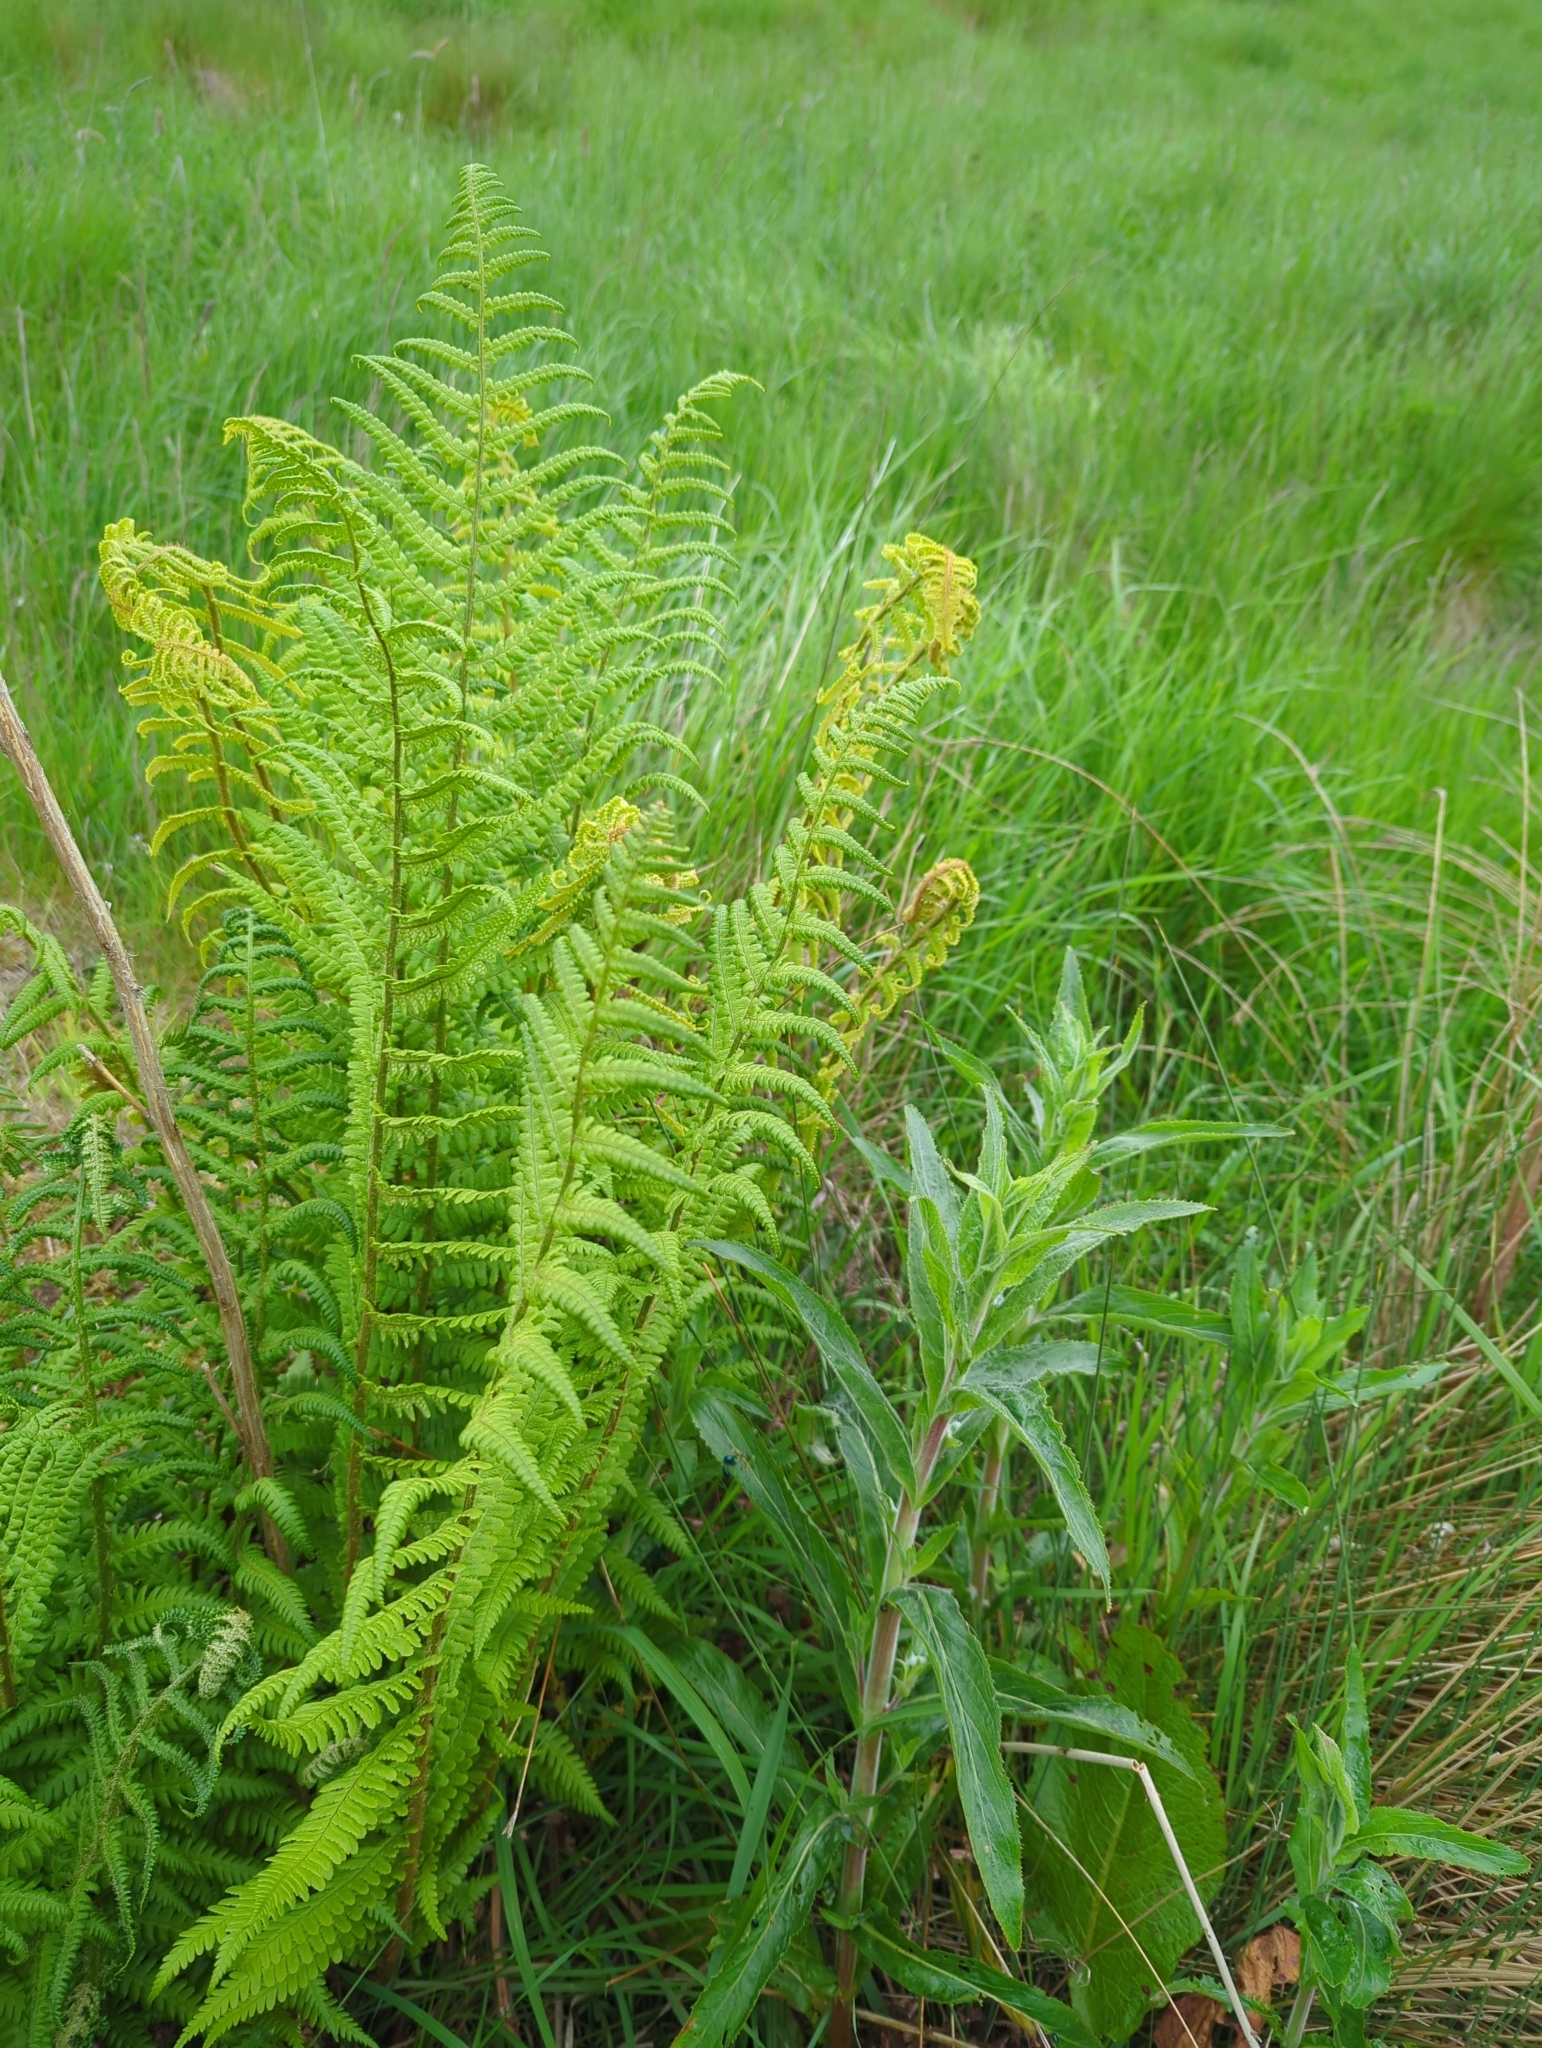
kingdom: Plantae
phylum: Tracheophyta
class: Polypodiopsida
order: Polypodiales
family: Dryopteridaceae
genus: Dryopteris
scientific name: Dryopteris filix-mas
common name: Male fern
